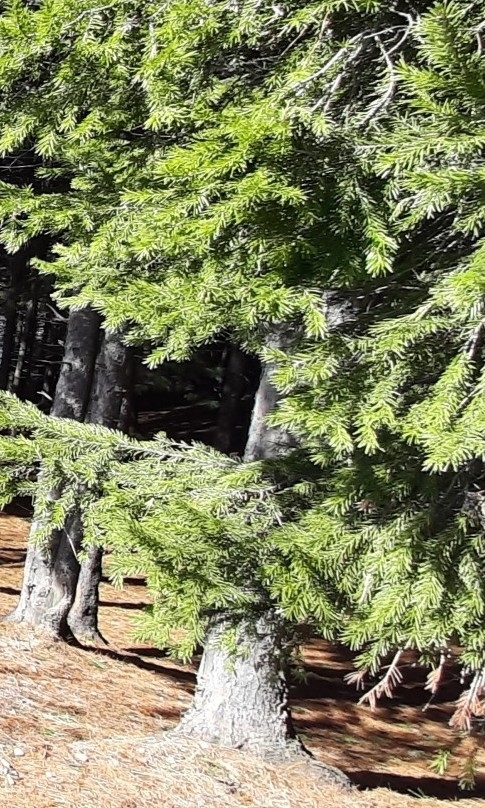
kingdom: Plantae
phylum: Tracheophyta
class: Pinopsida
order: Pinales
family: Pinaceae
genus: Abies
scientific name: Abies sibirica
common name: Siberian fir
